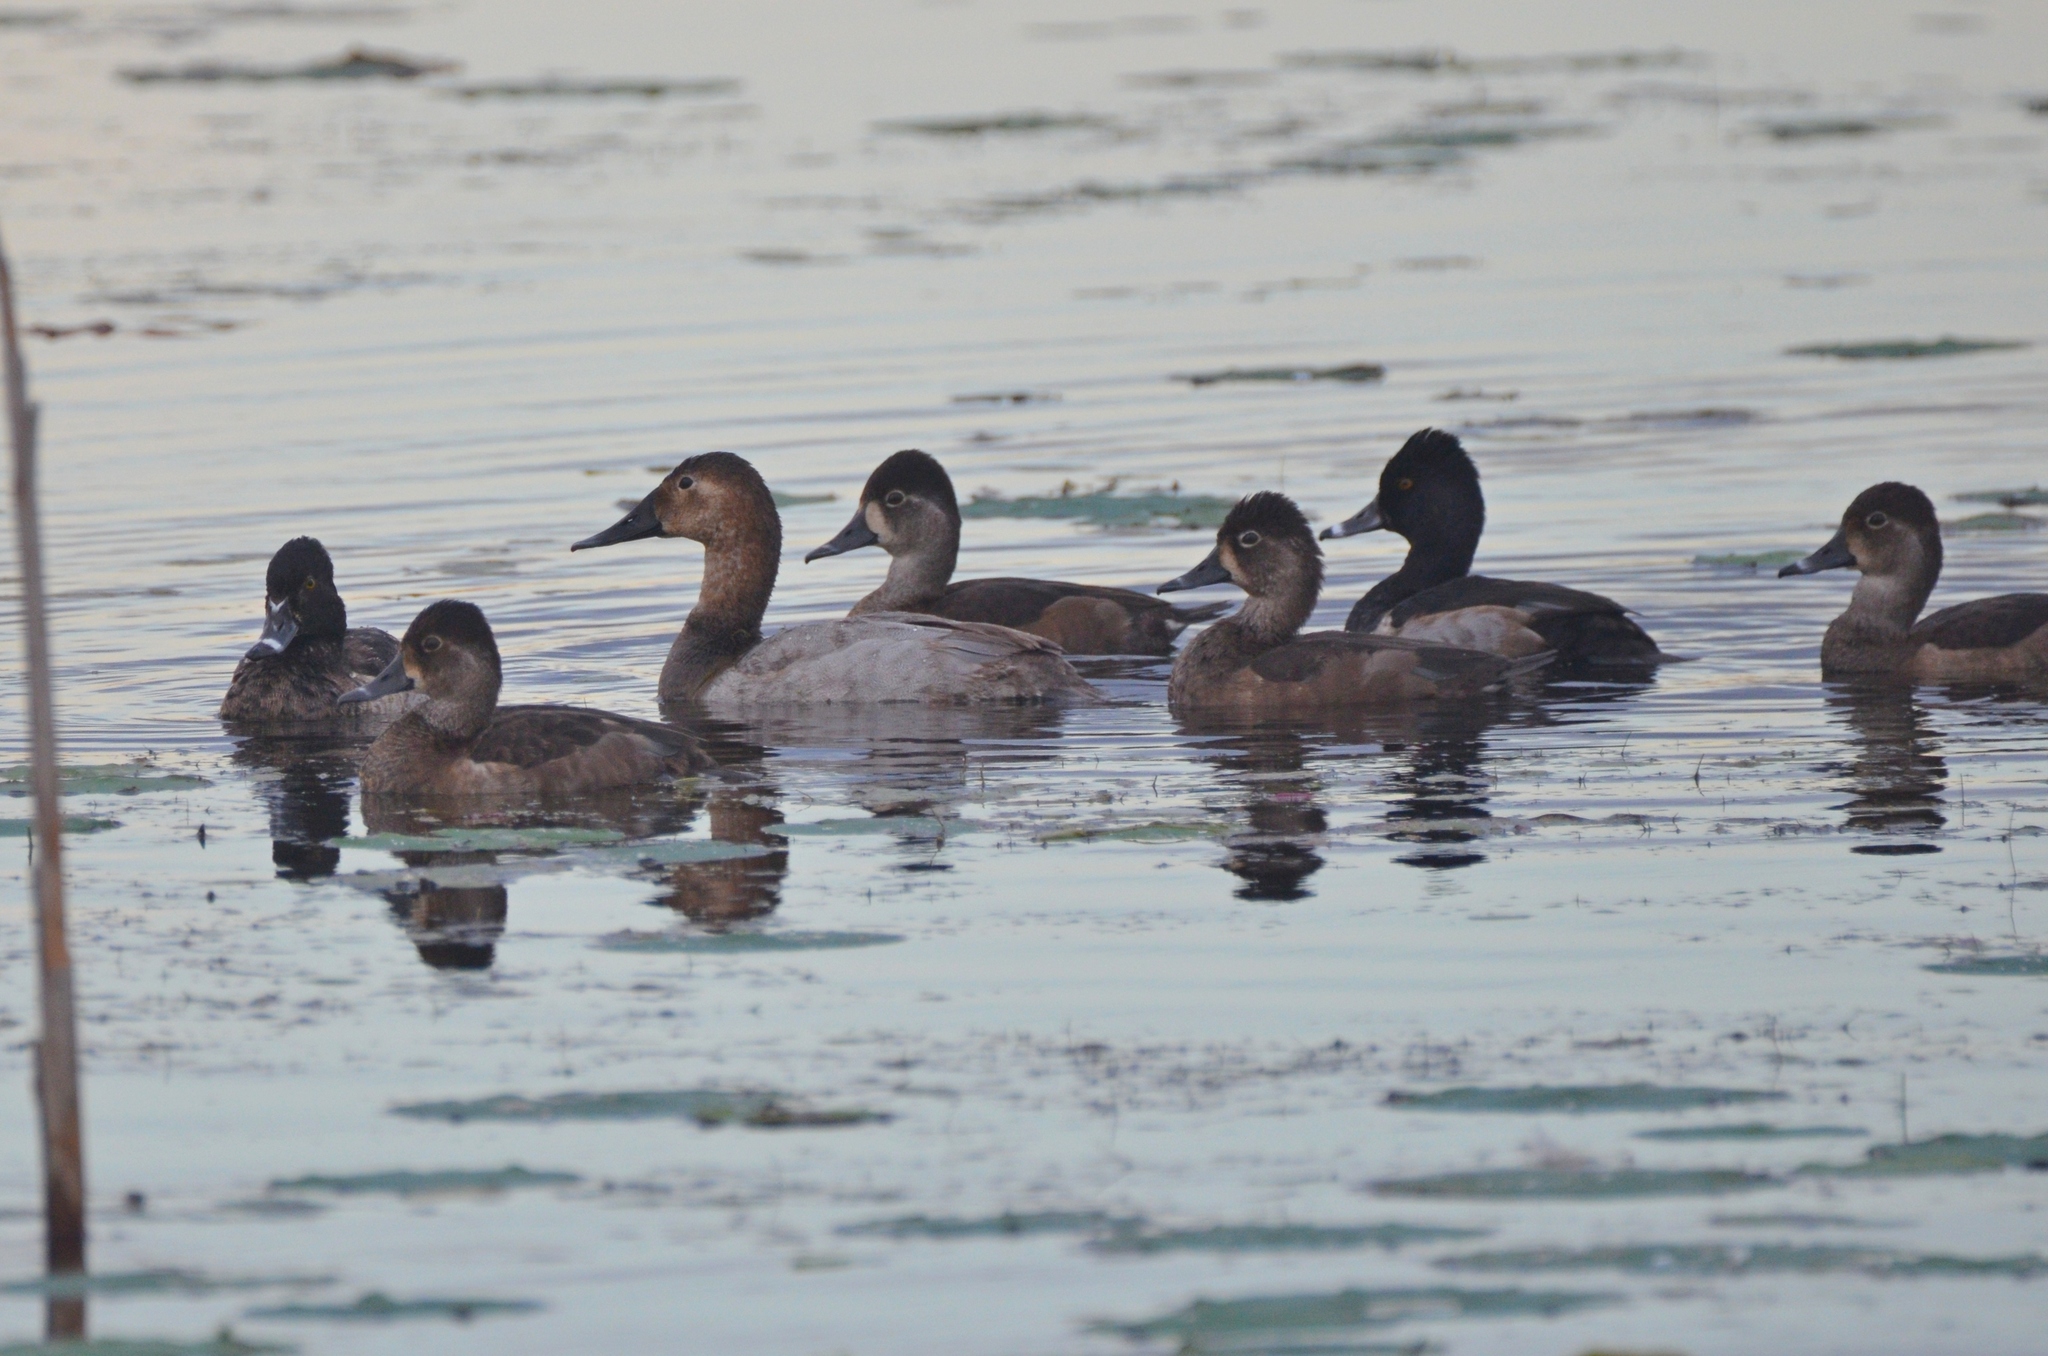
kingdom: Animalia
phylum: Chordata
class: Aves
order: Anseriformes
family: Anatidae
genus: Aythya
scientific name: Aythya valisineria
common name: Canvasback
